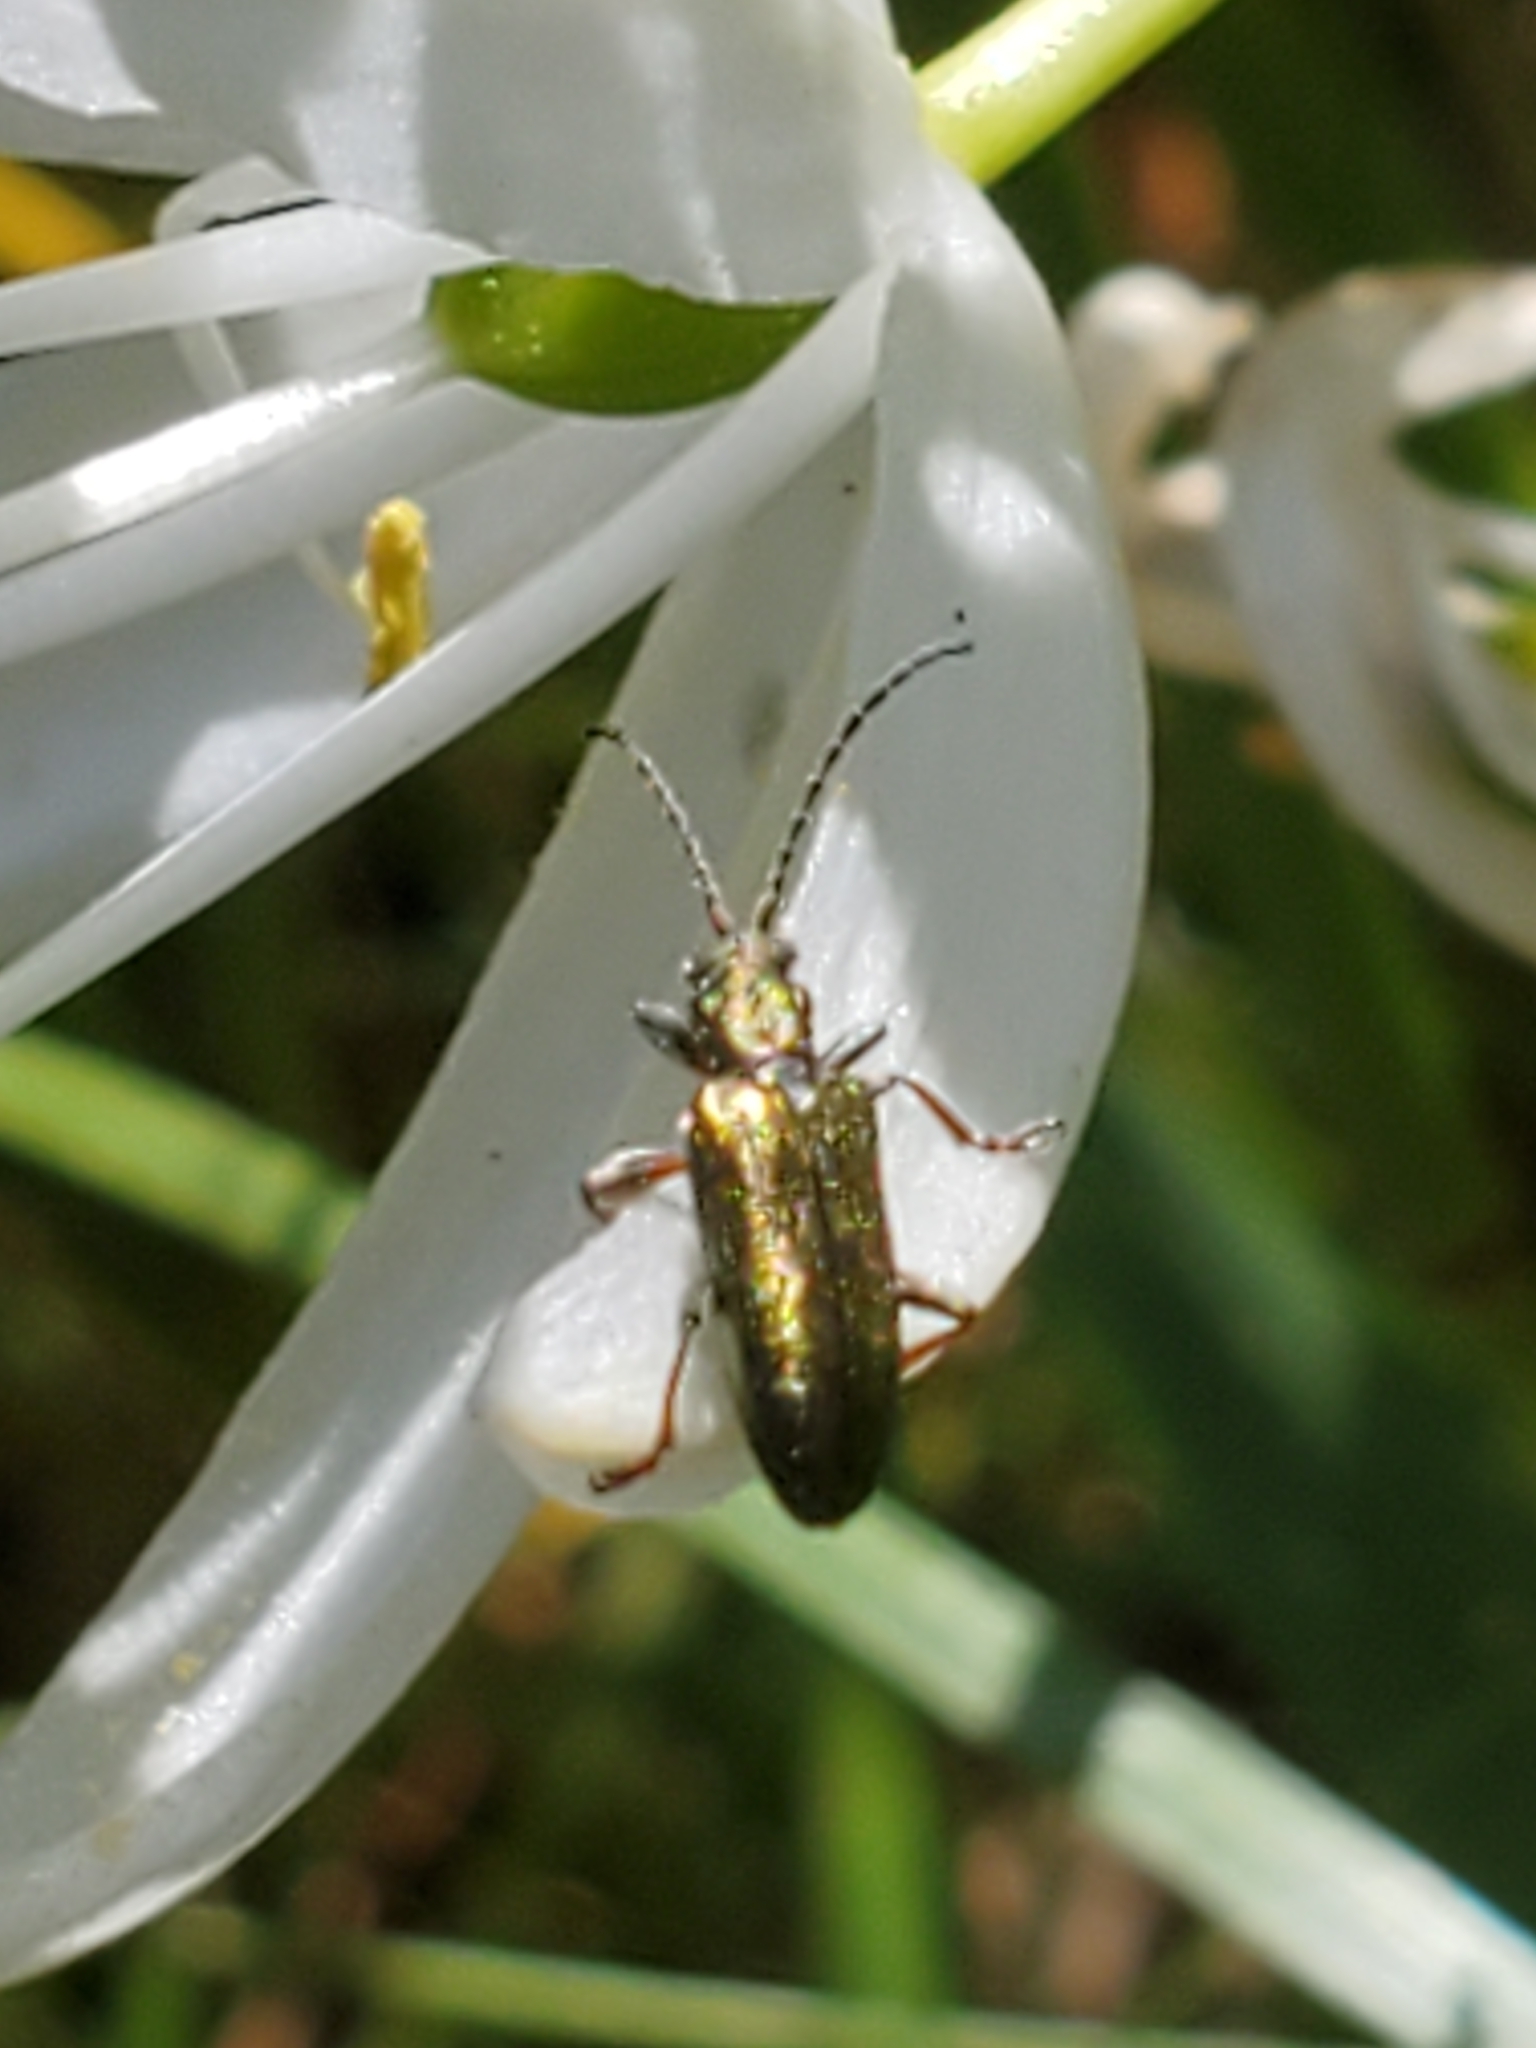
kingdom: Animalia
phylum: Arthropoda
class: Insecta
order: Coleoptera
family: Chrysomelidae
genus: Plateumaris
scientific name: Plateumaris
